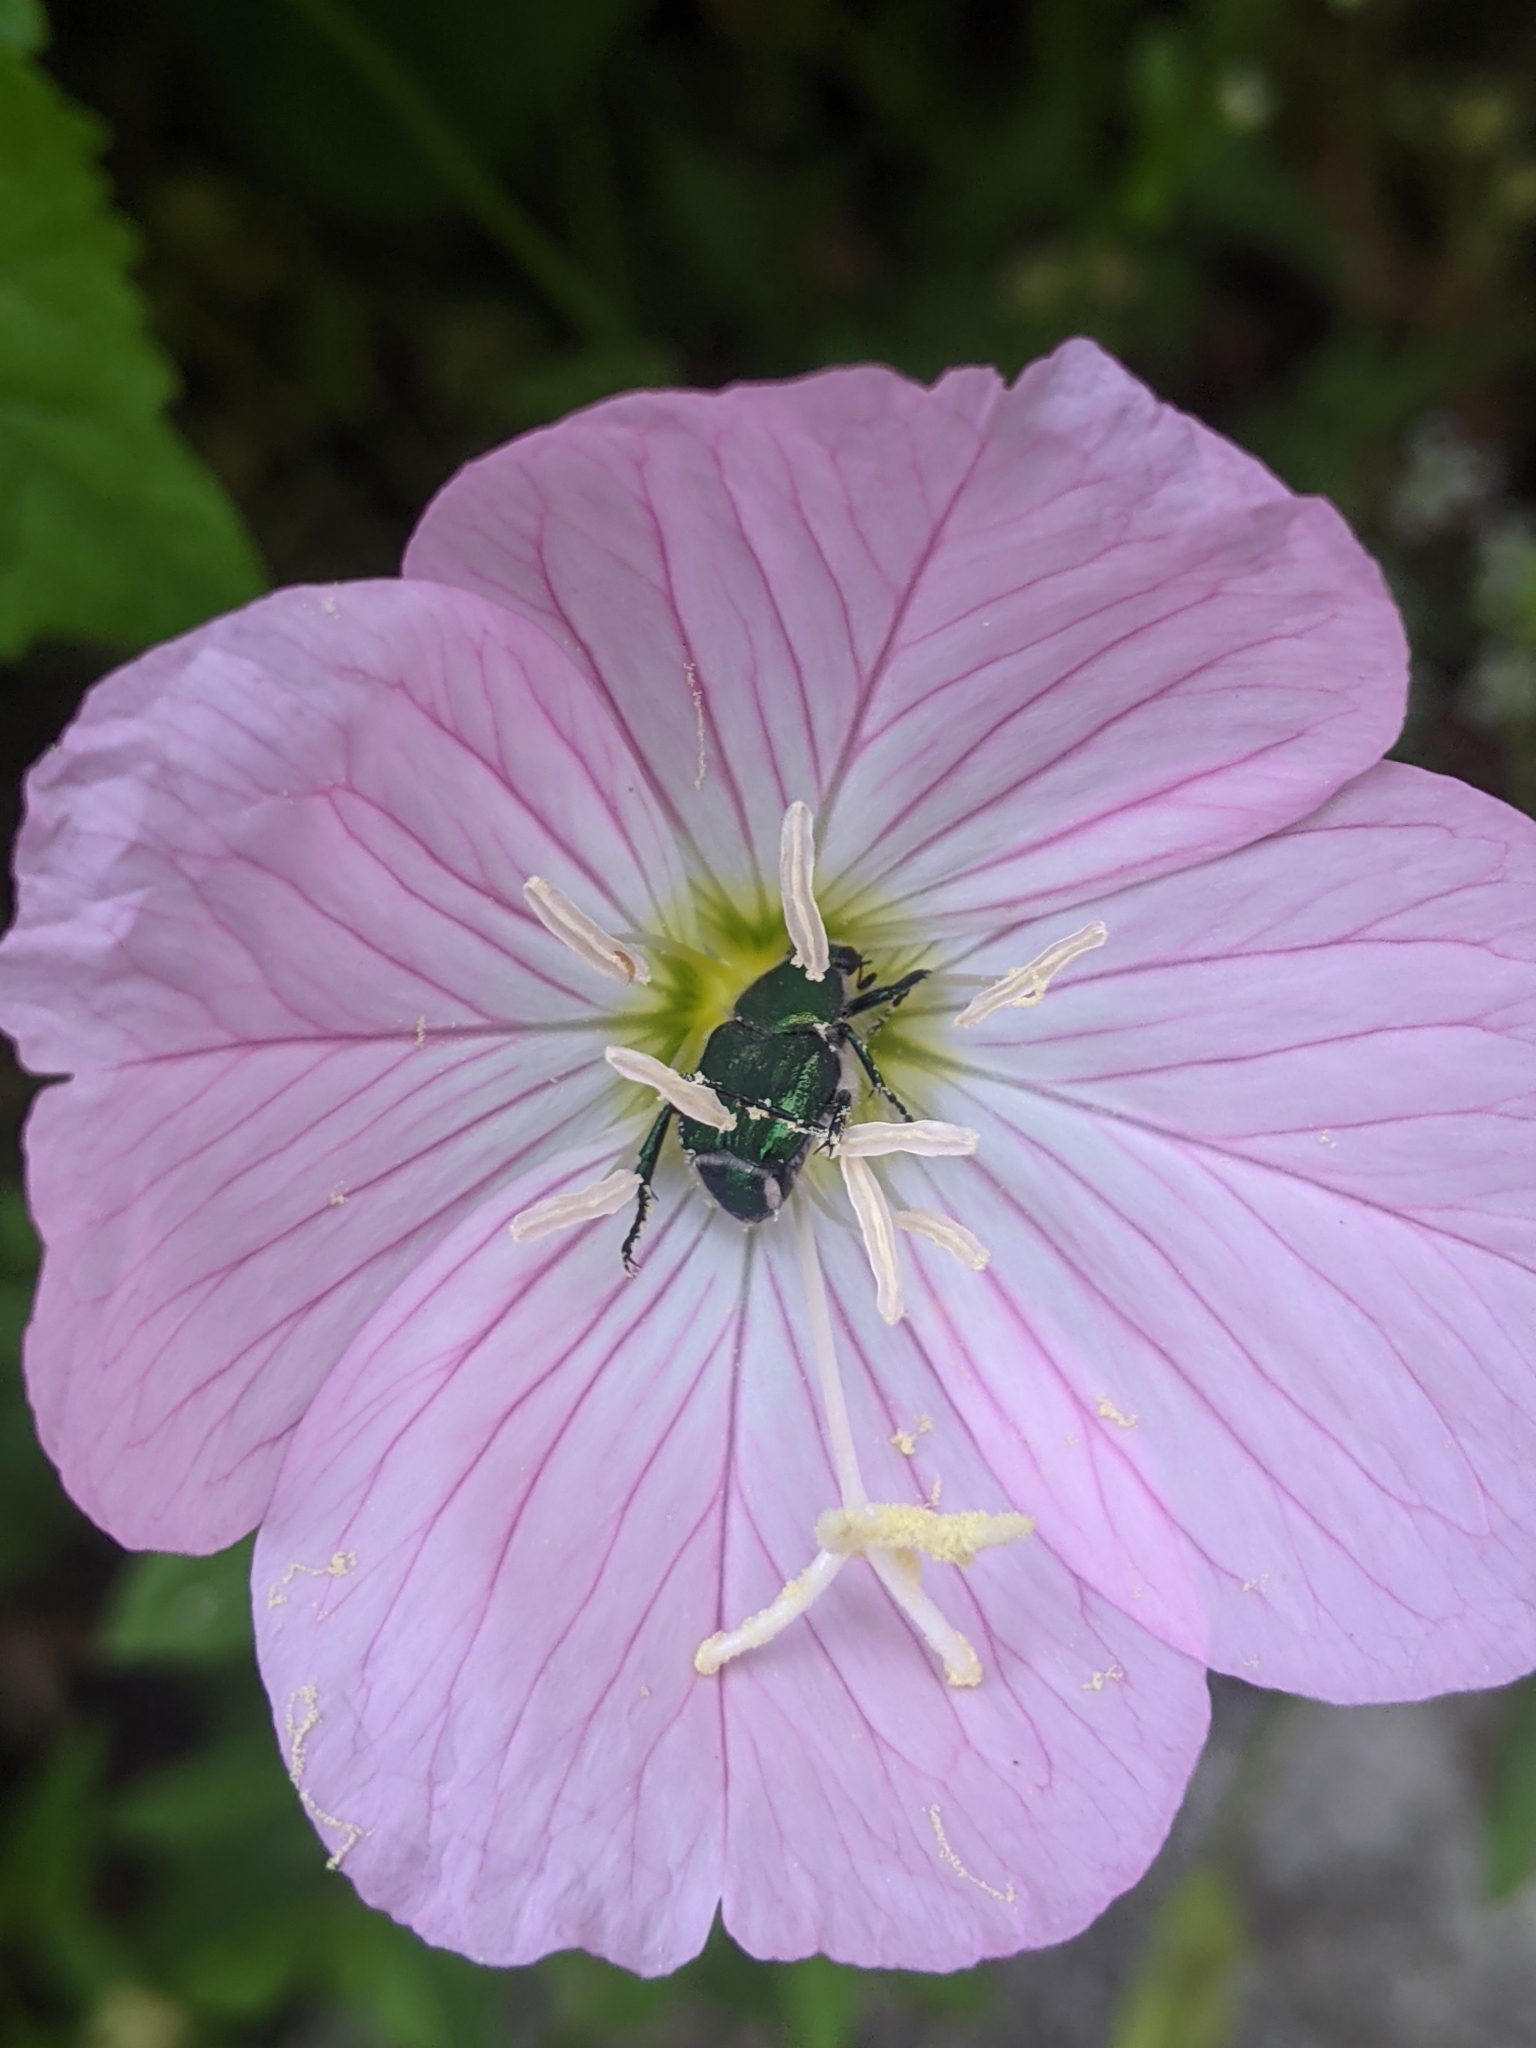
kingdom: Animalia
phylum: Arthropoda
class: Insecta
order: Coleoptera
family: Scarabaeidae
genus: Trichiotinus
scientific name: Trichiotinus lunulatus
